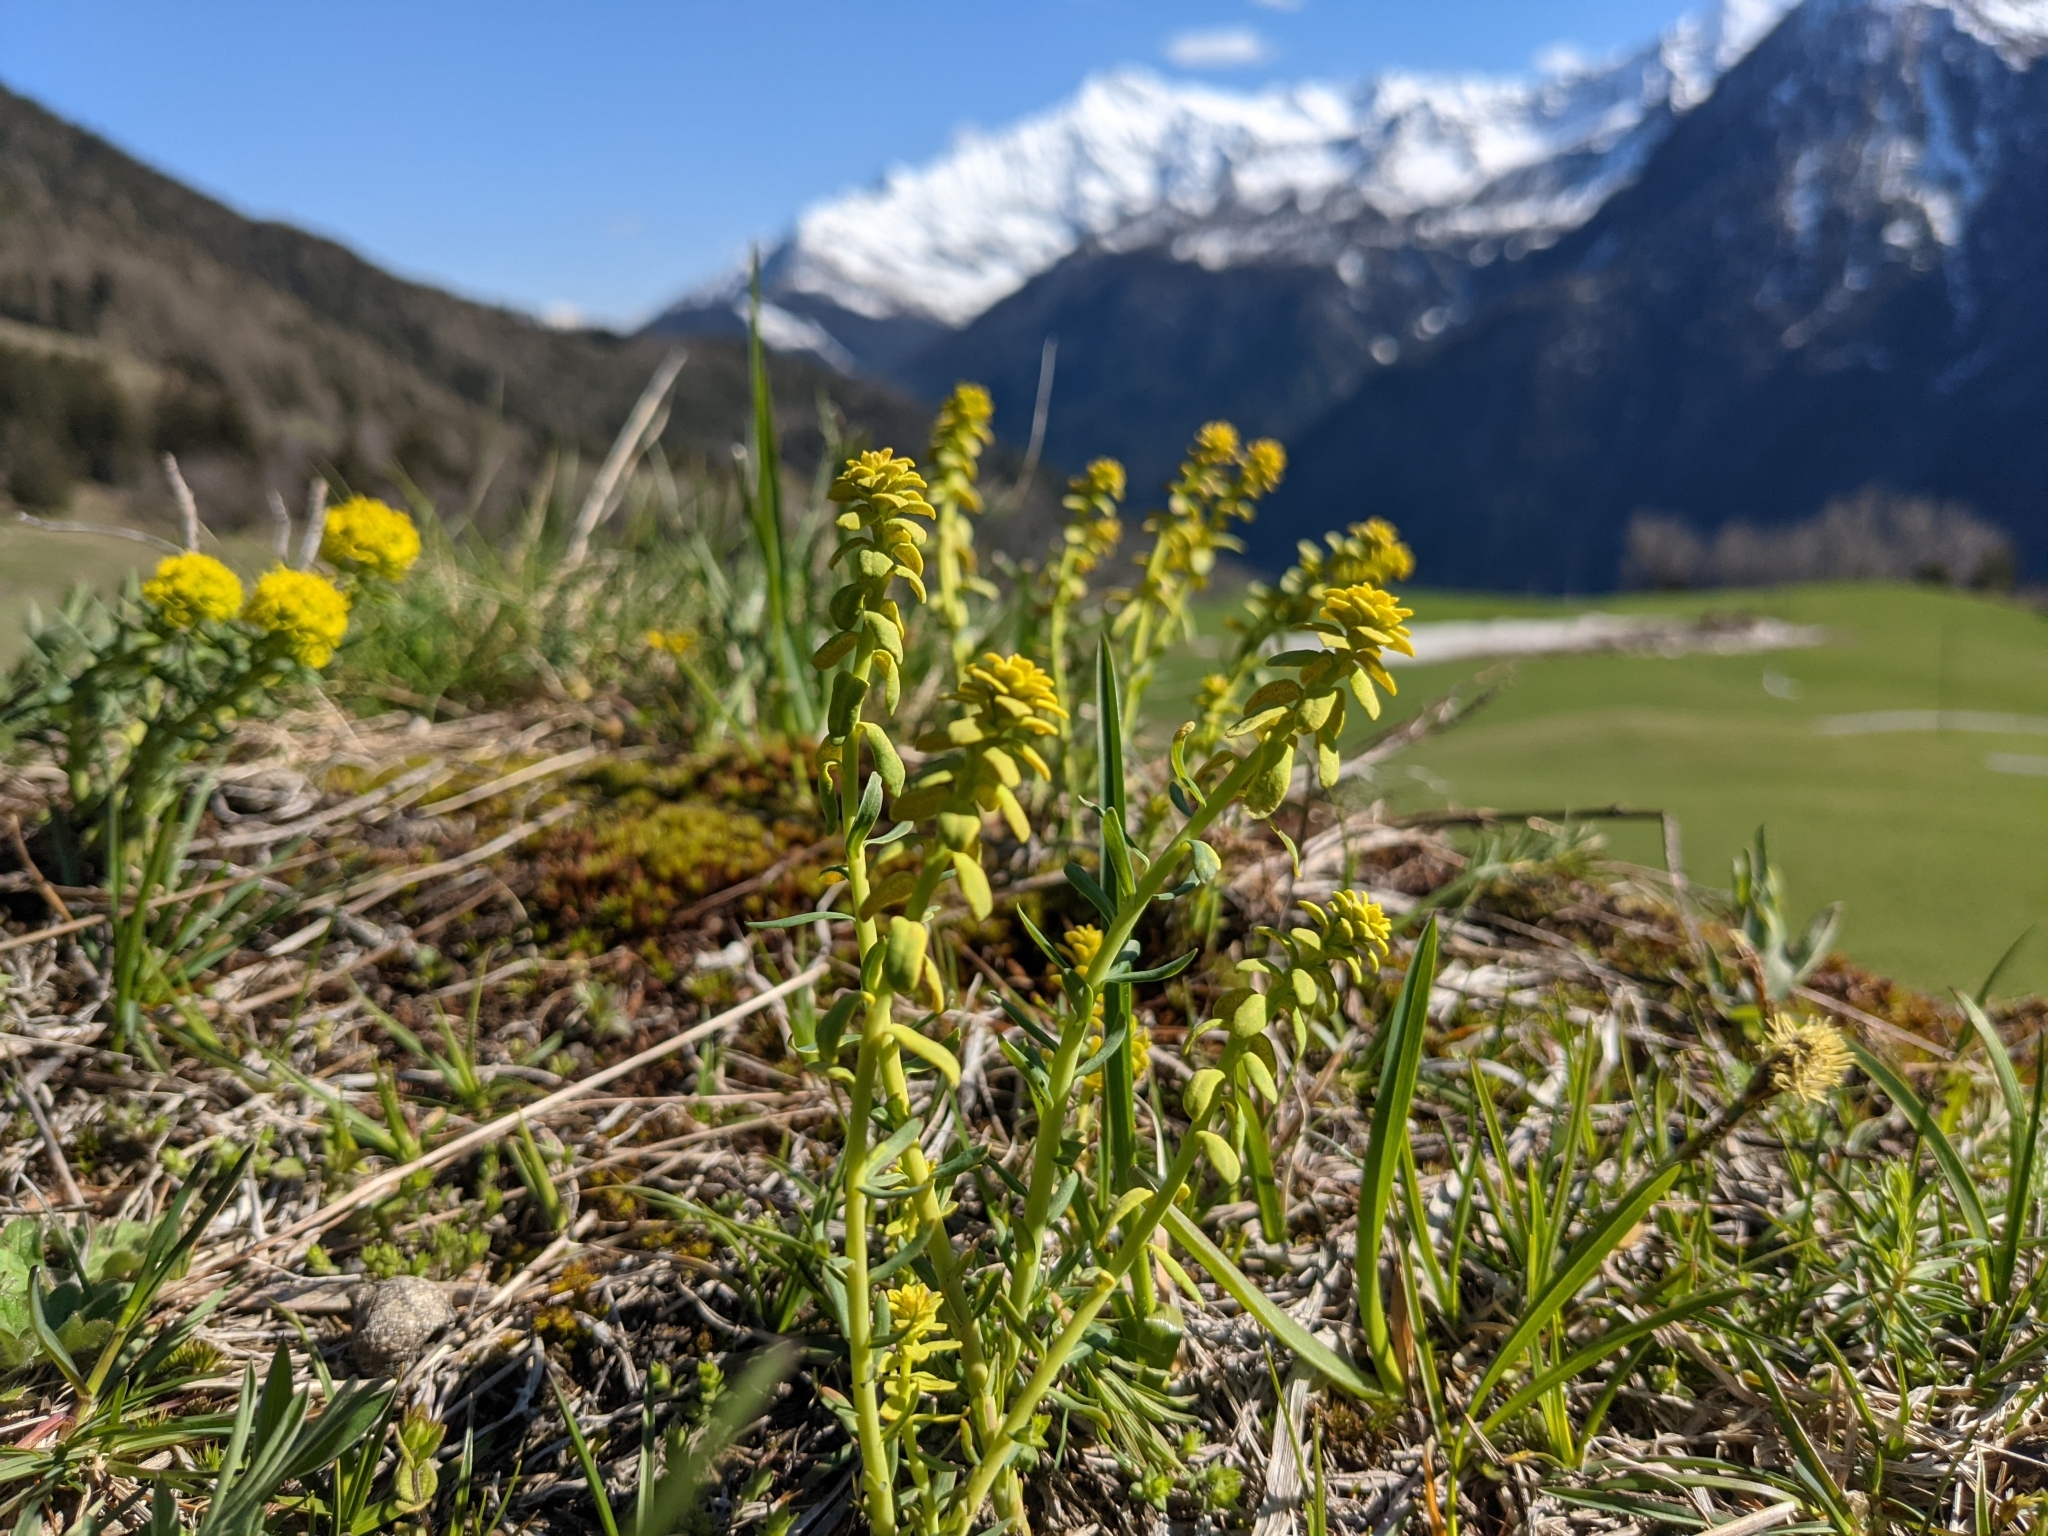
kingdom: Plantae
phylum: Tracheophyta
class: Magnoliopsida
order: Malpighiales
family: Euphorbiaceae
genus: Euphorbia
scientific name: Euphorbia cyparissias
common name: Cypress spurge
